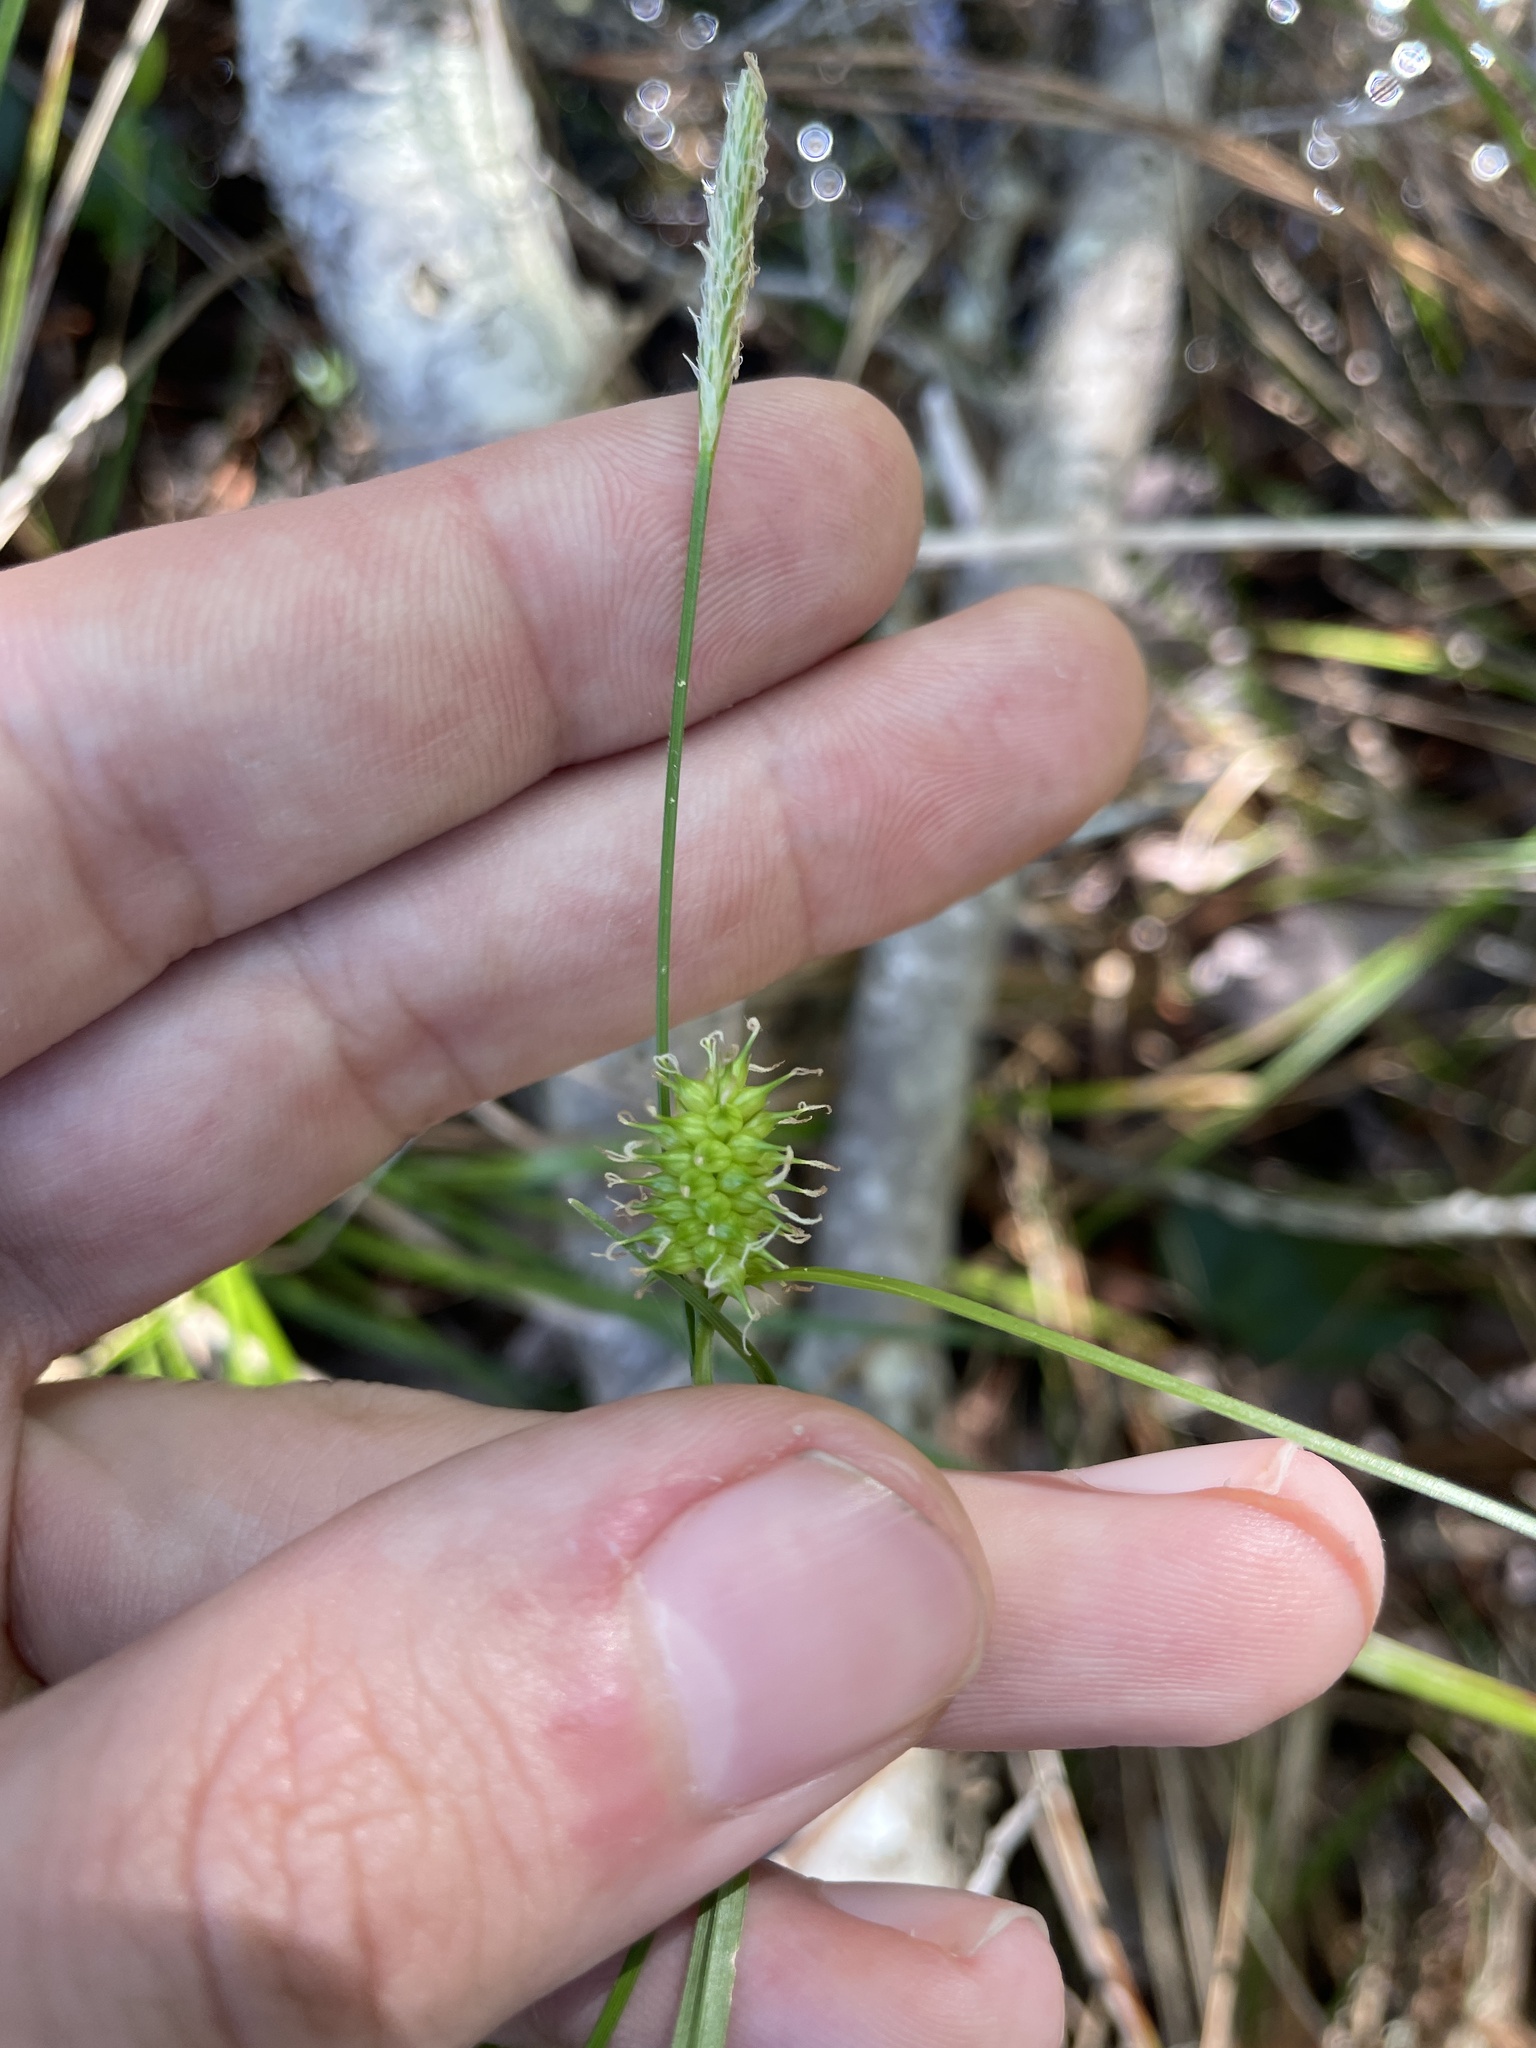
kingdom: Plantae
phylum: Tracheophyta
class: Liliopsida
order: Poales
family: Cyperaceae
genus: Carex
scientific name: Carex lutea
